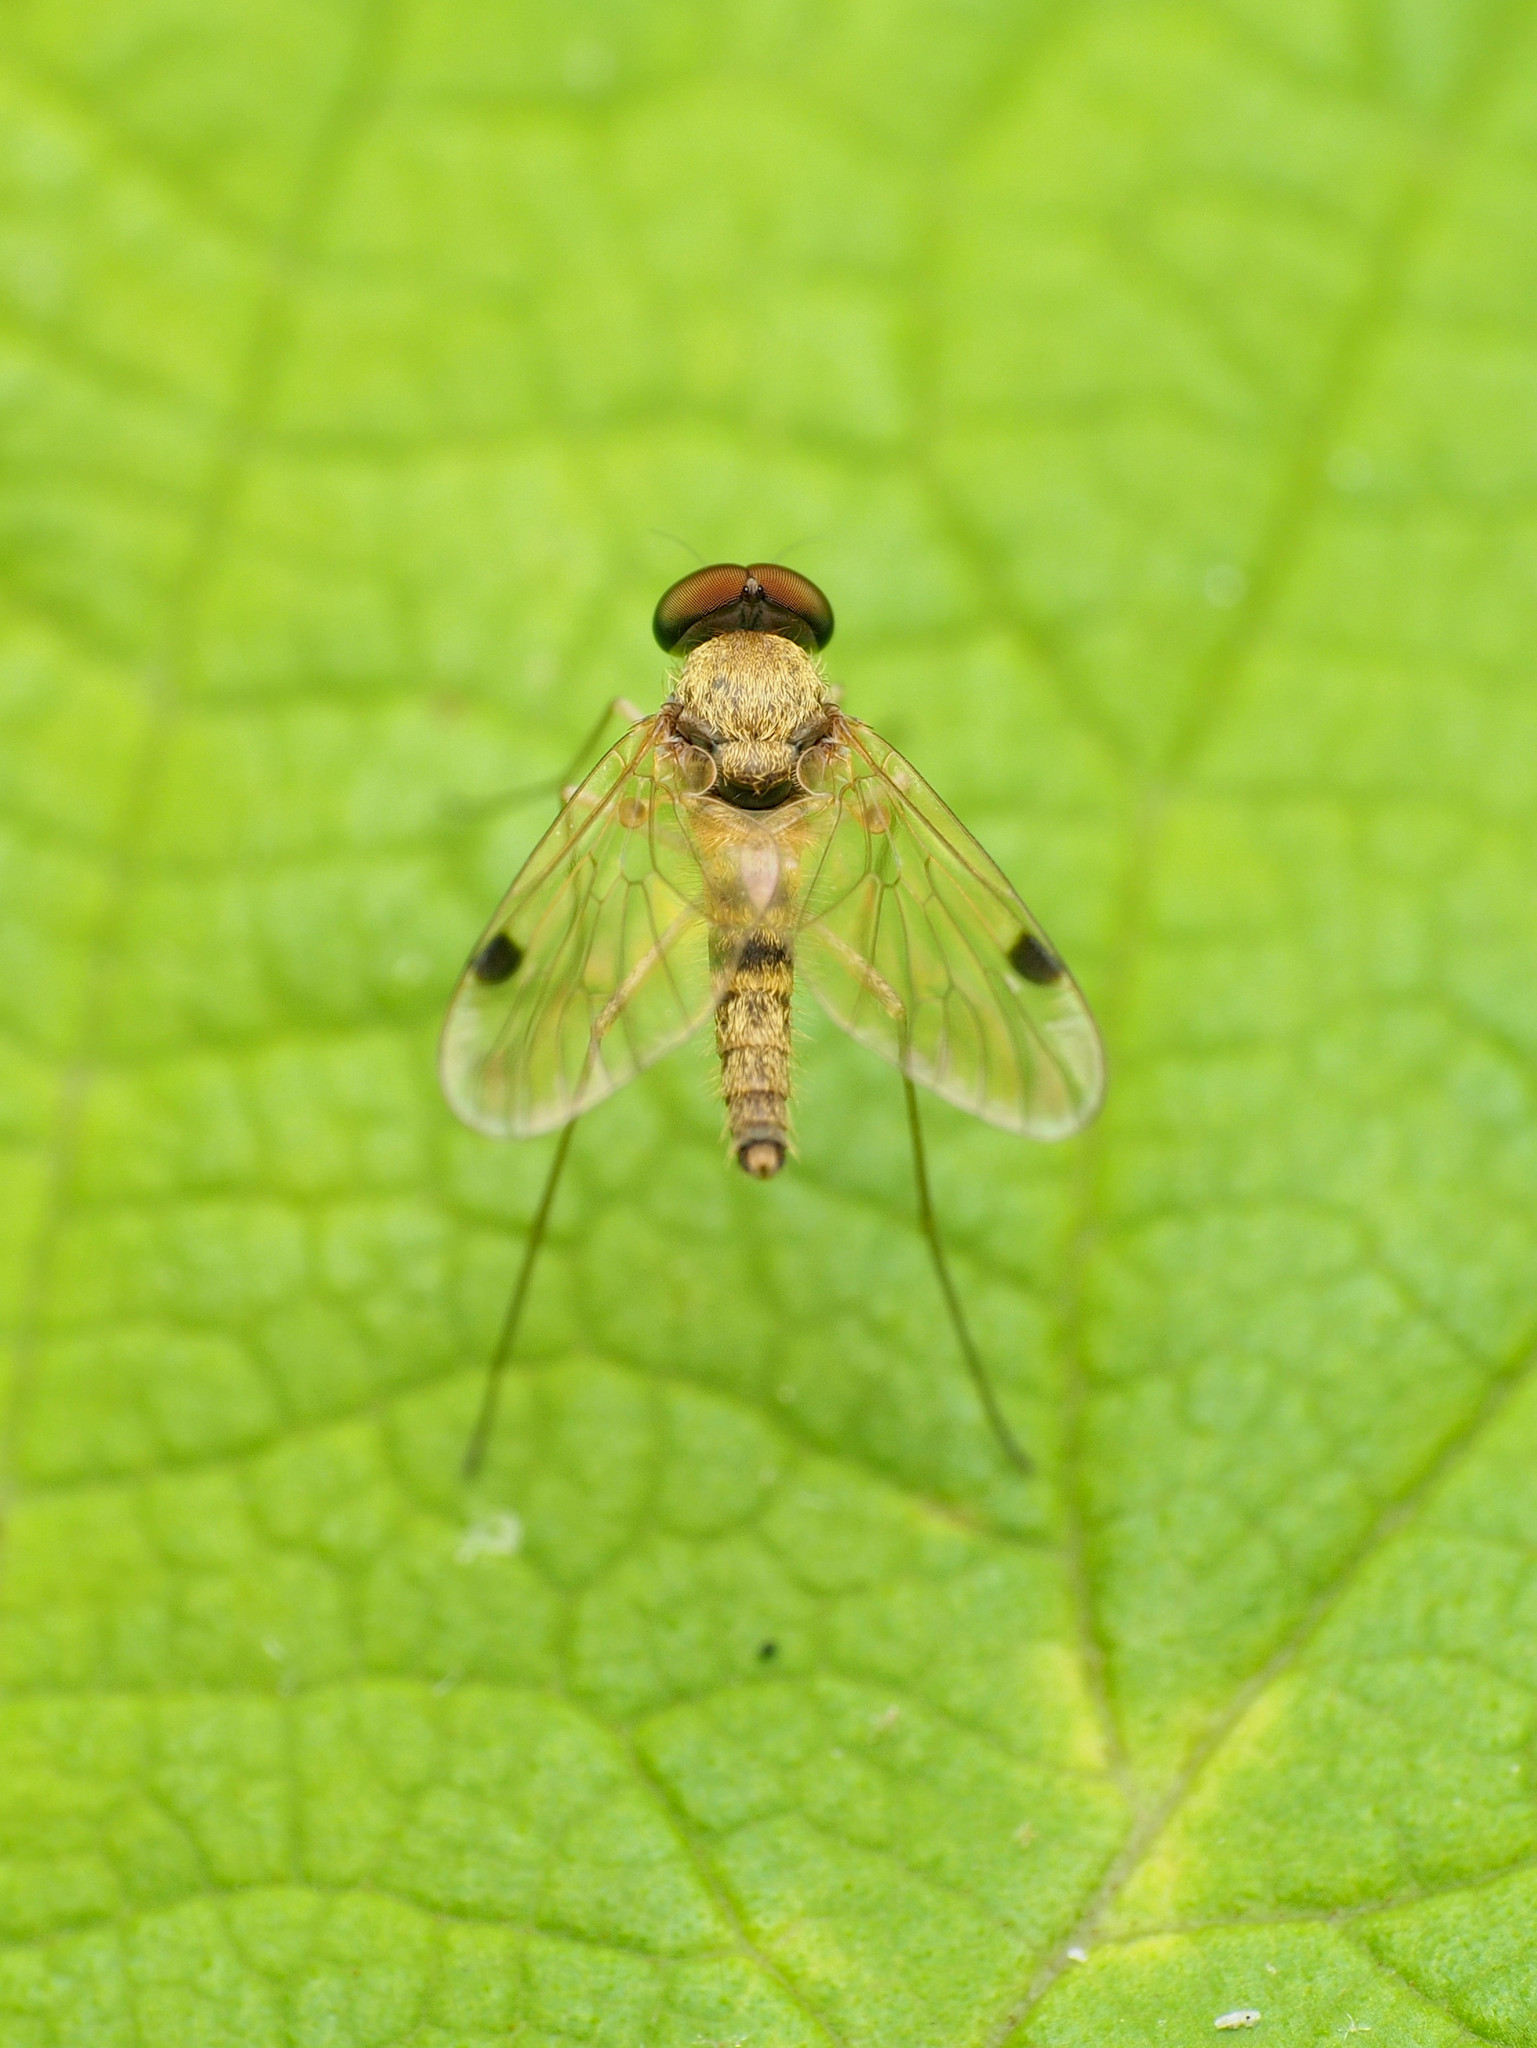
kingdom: Animalia
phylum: Arthropoda
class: Insecta
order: Diptera
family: Rhagionidae
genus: Chrysopilus
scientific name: Chrysopilus modestus
